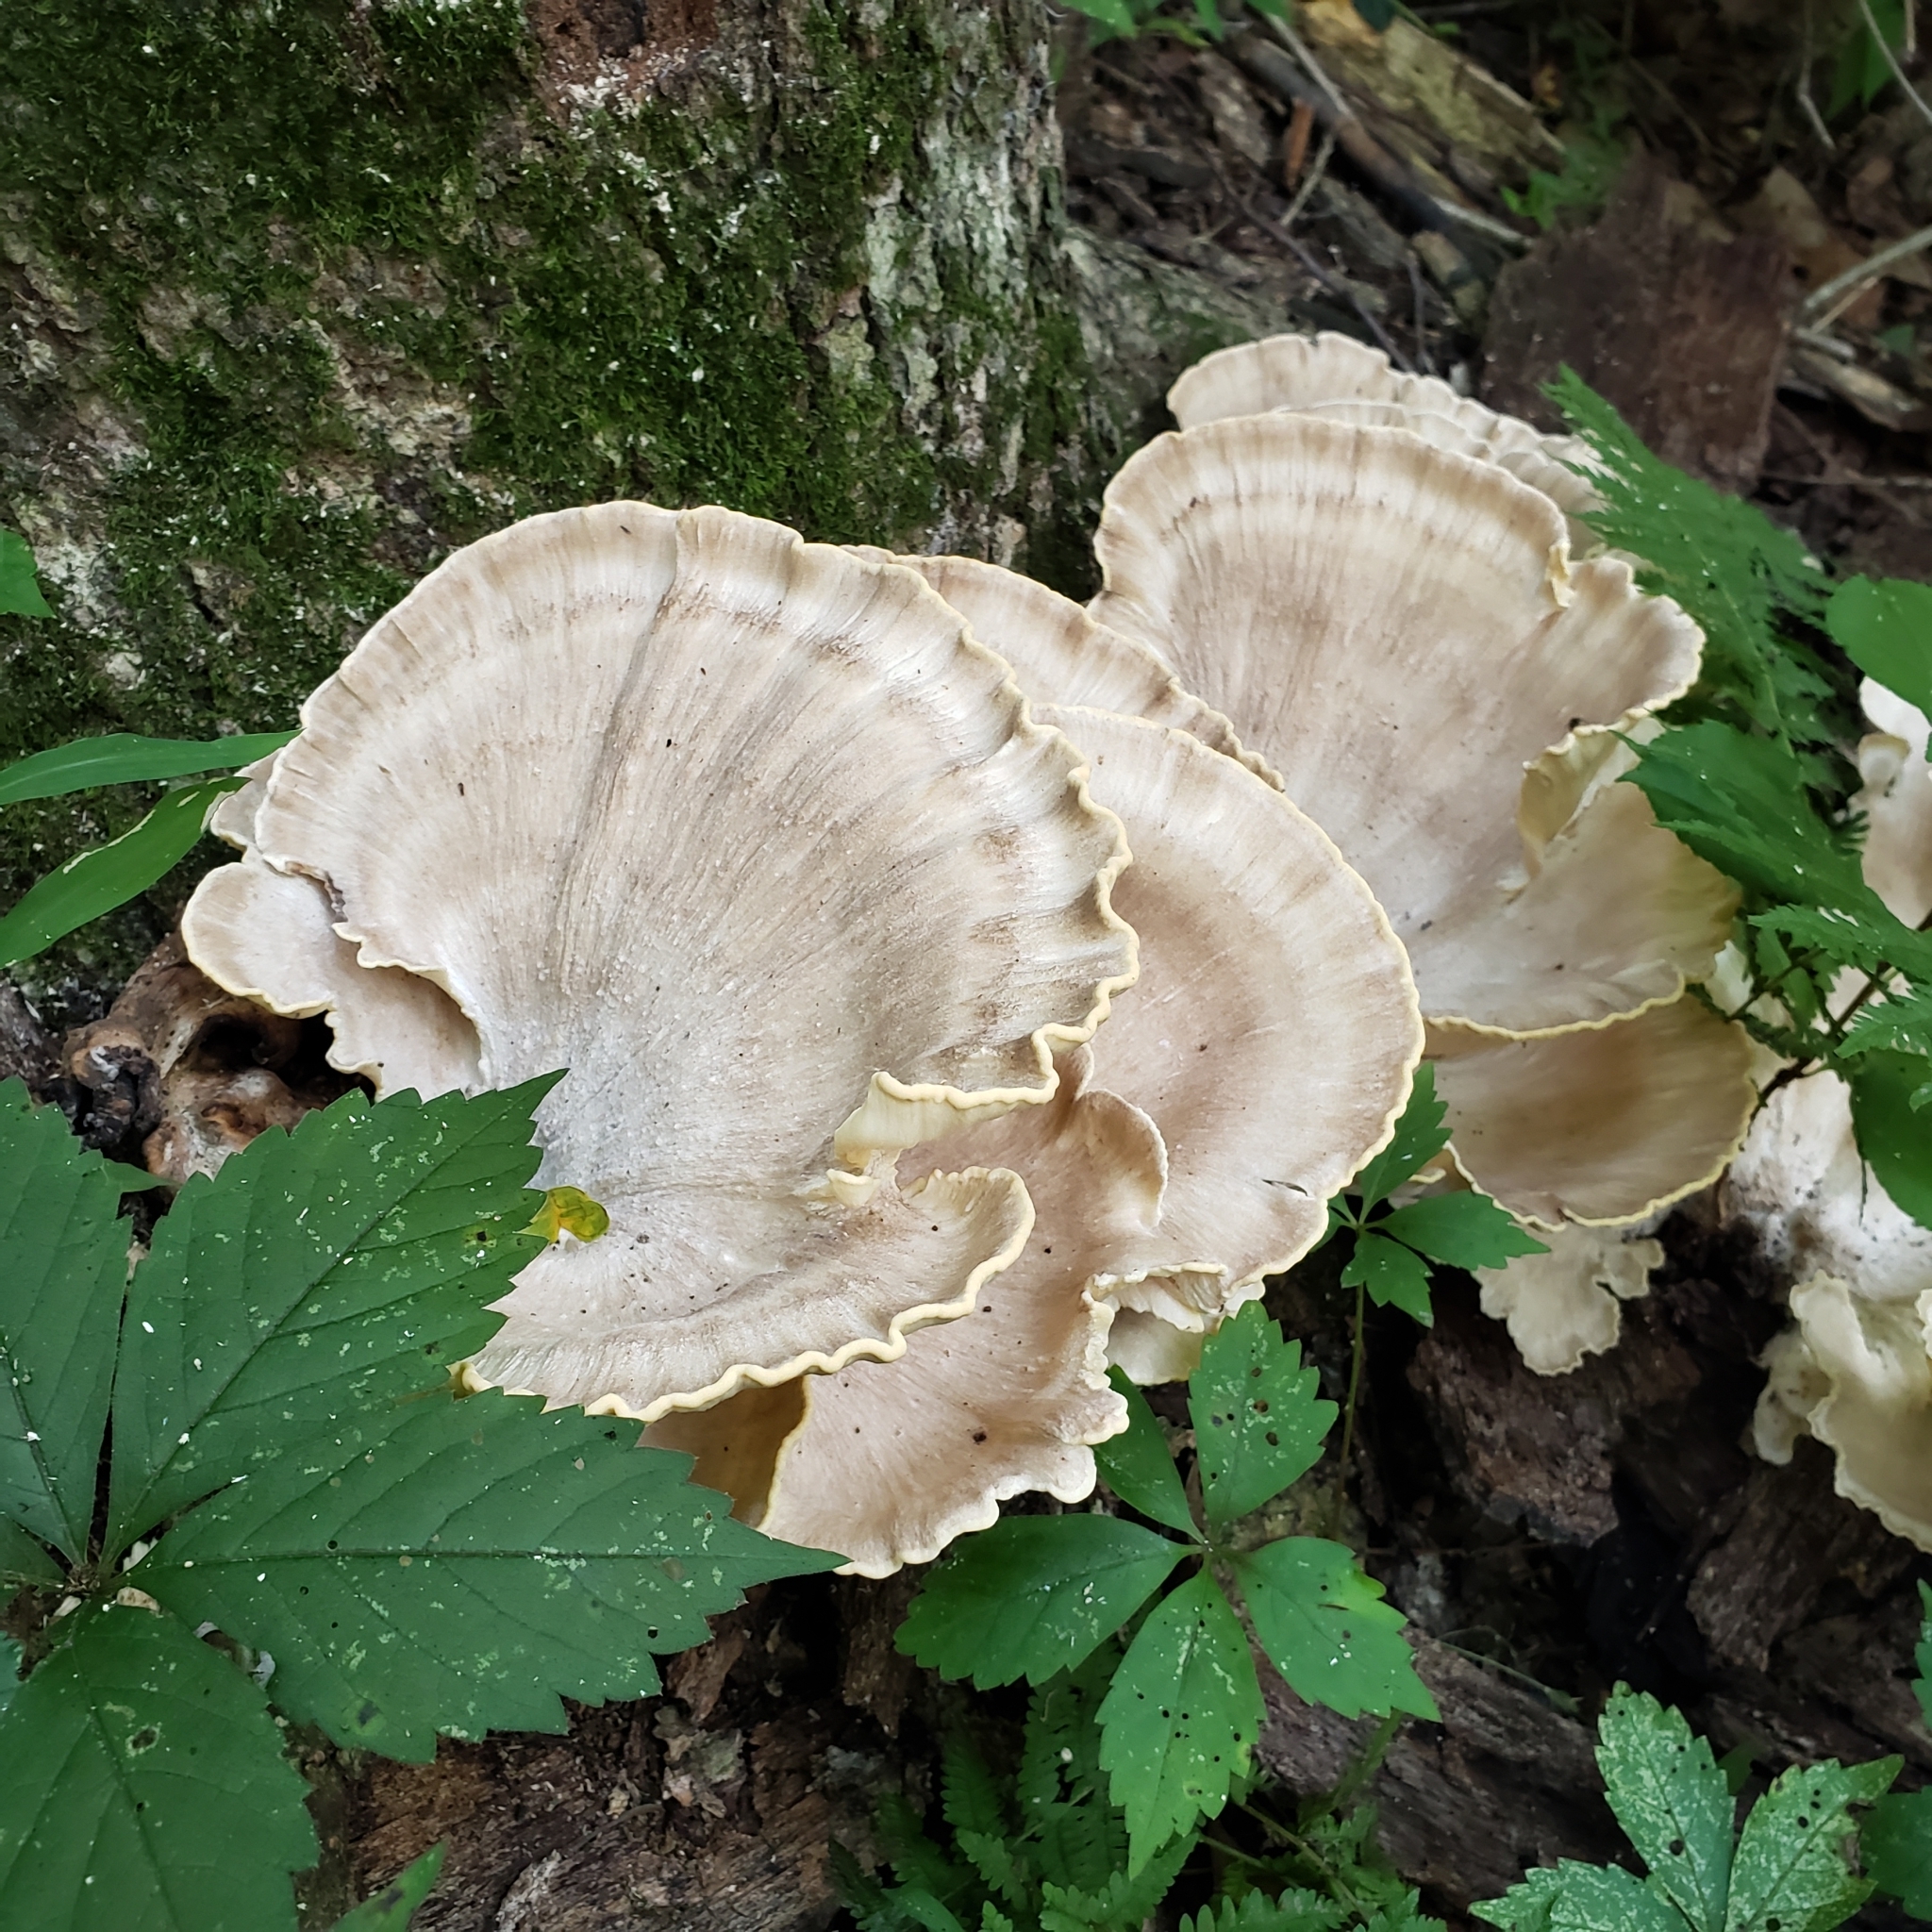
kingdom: Fungi
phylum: Basidiomycota
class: Agaricomycetes
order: Polyporales
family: Meripilaceae
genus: Meripilus
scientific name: Meripilus sumstinei
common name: Black-staining polypore
